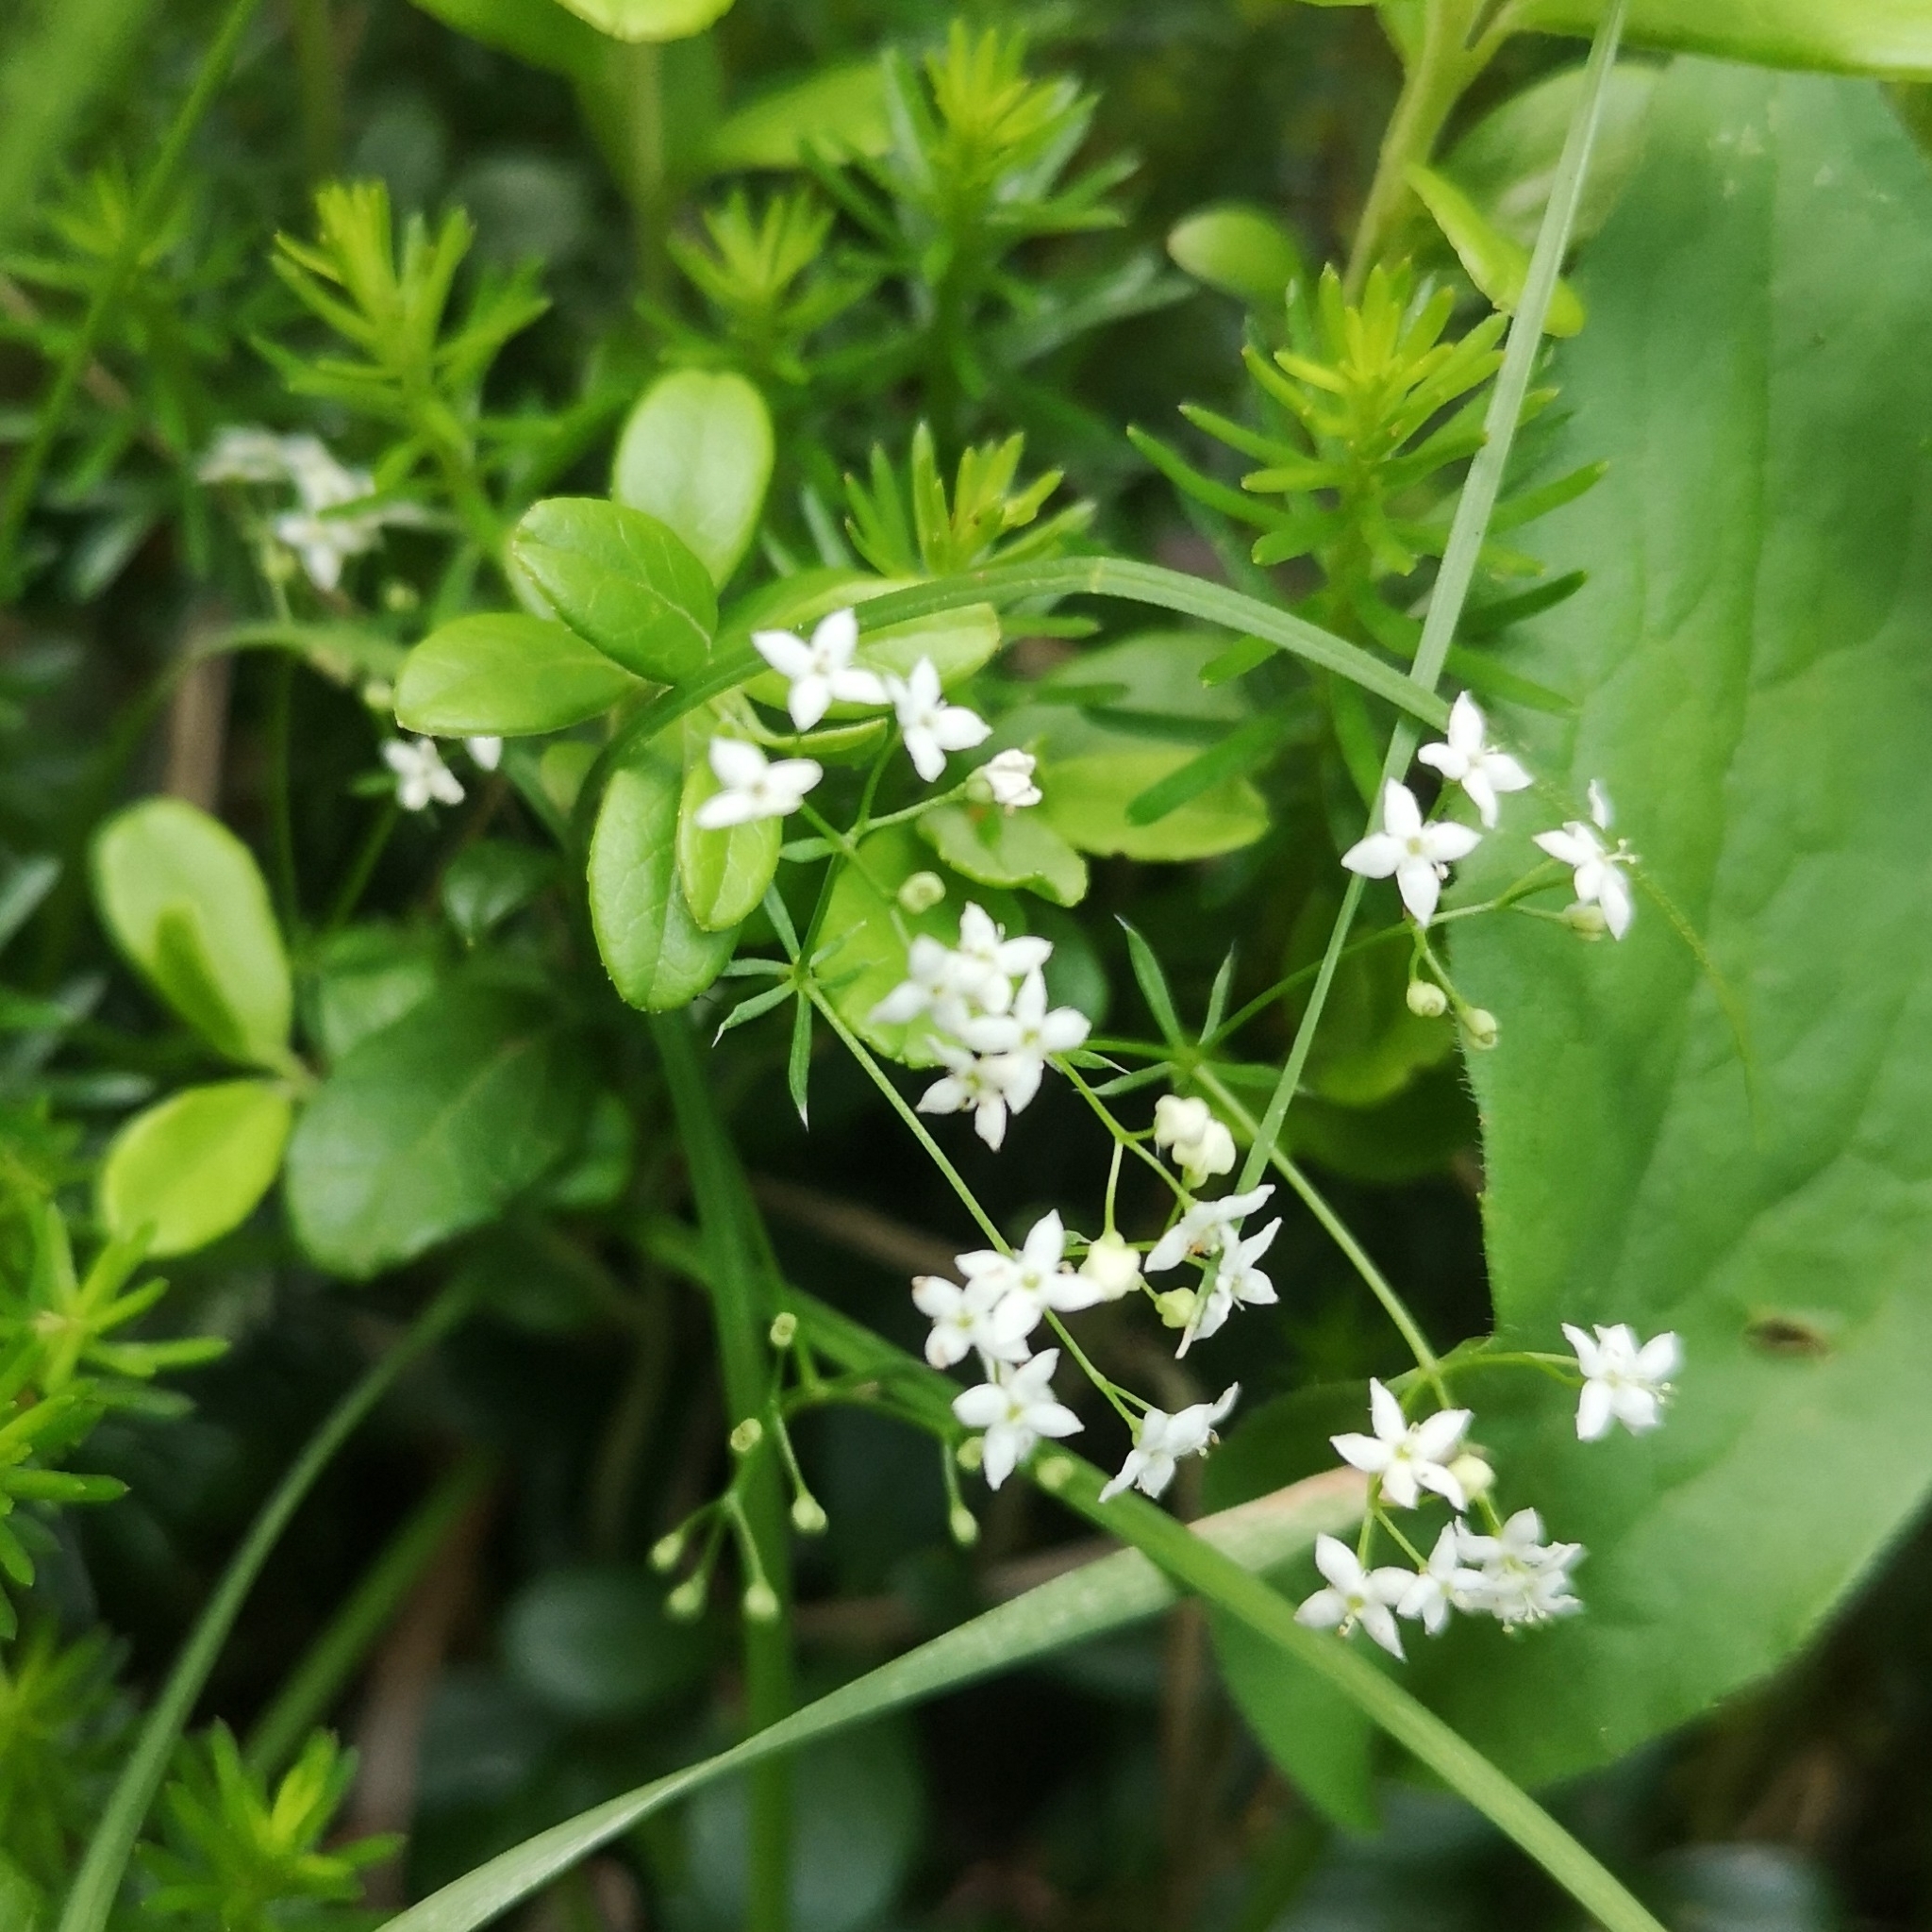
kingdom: Plantae
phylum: Tracheophyta
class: Magnoliopsida
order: Gentianales
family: Rubiaceae
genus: Galium
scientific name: Galium anisophyllon
